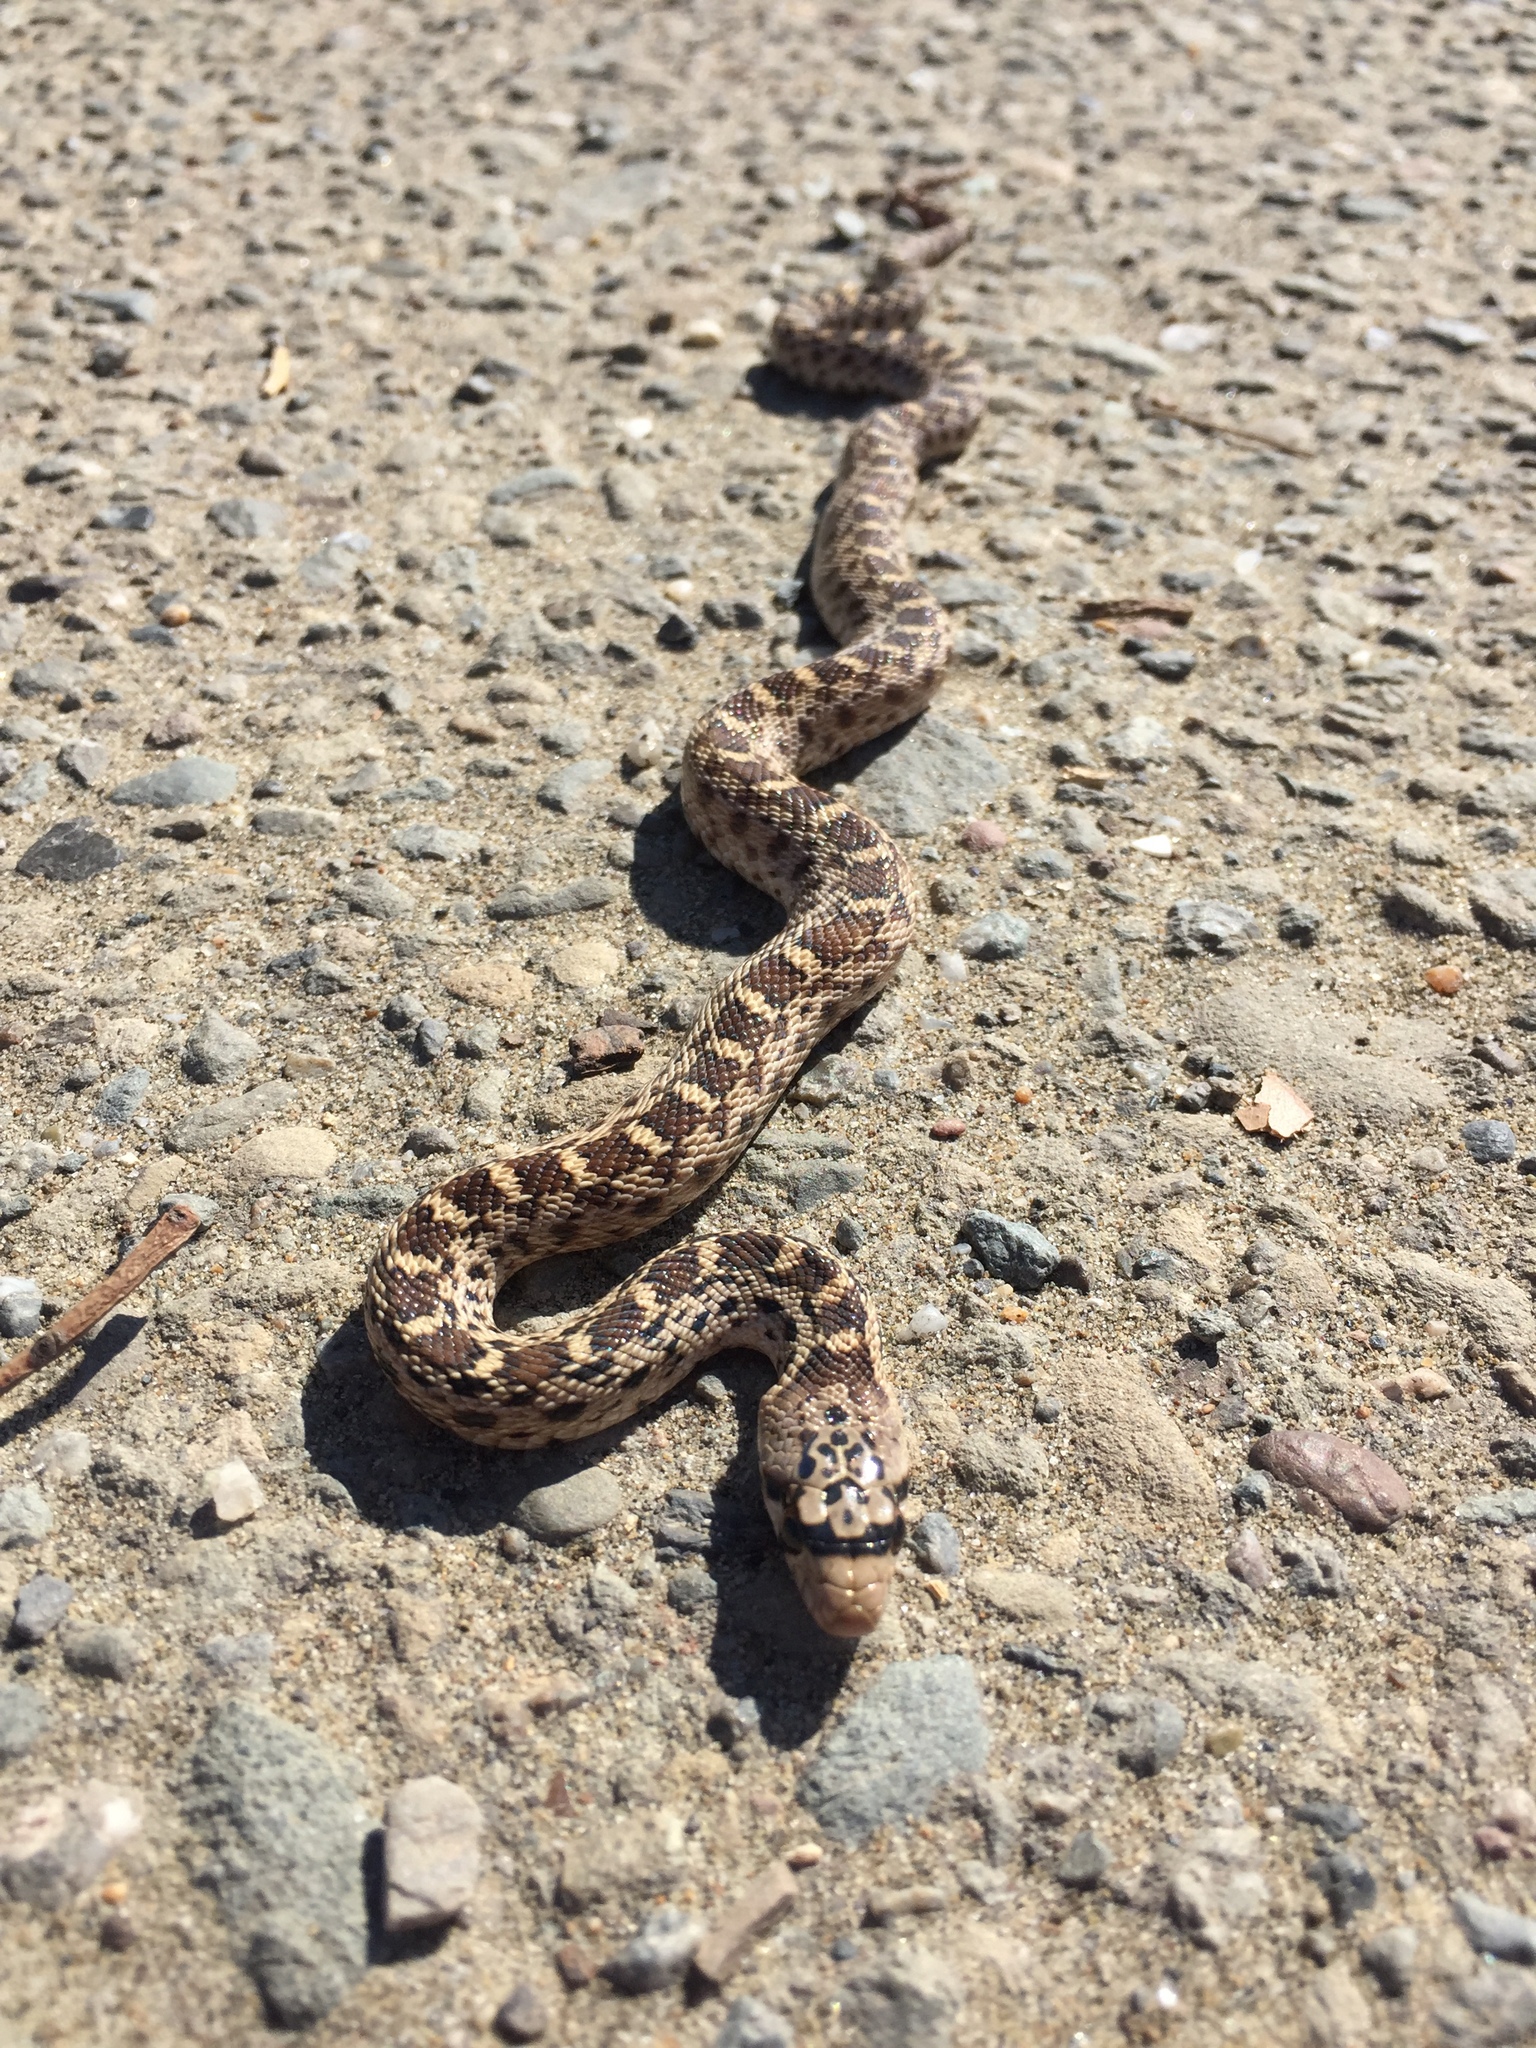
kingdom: Animalia
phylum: Chordata
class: Squamata
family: Colubridae
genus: Pituophis
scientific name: Pituophis catenifer
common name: Gopher snake
